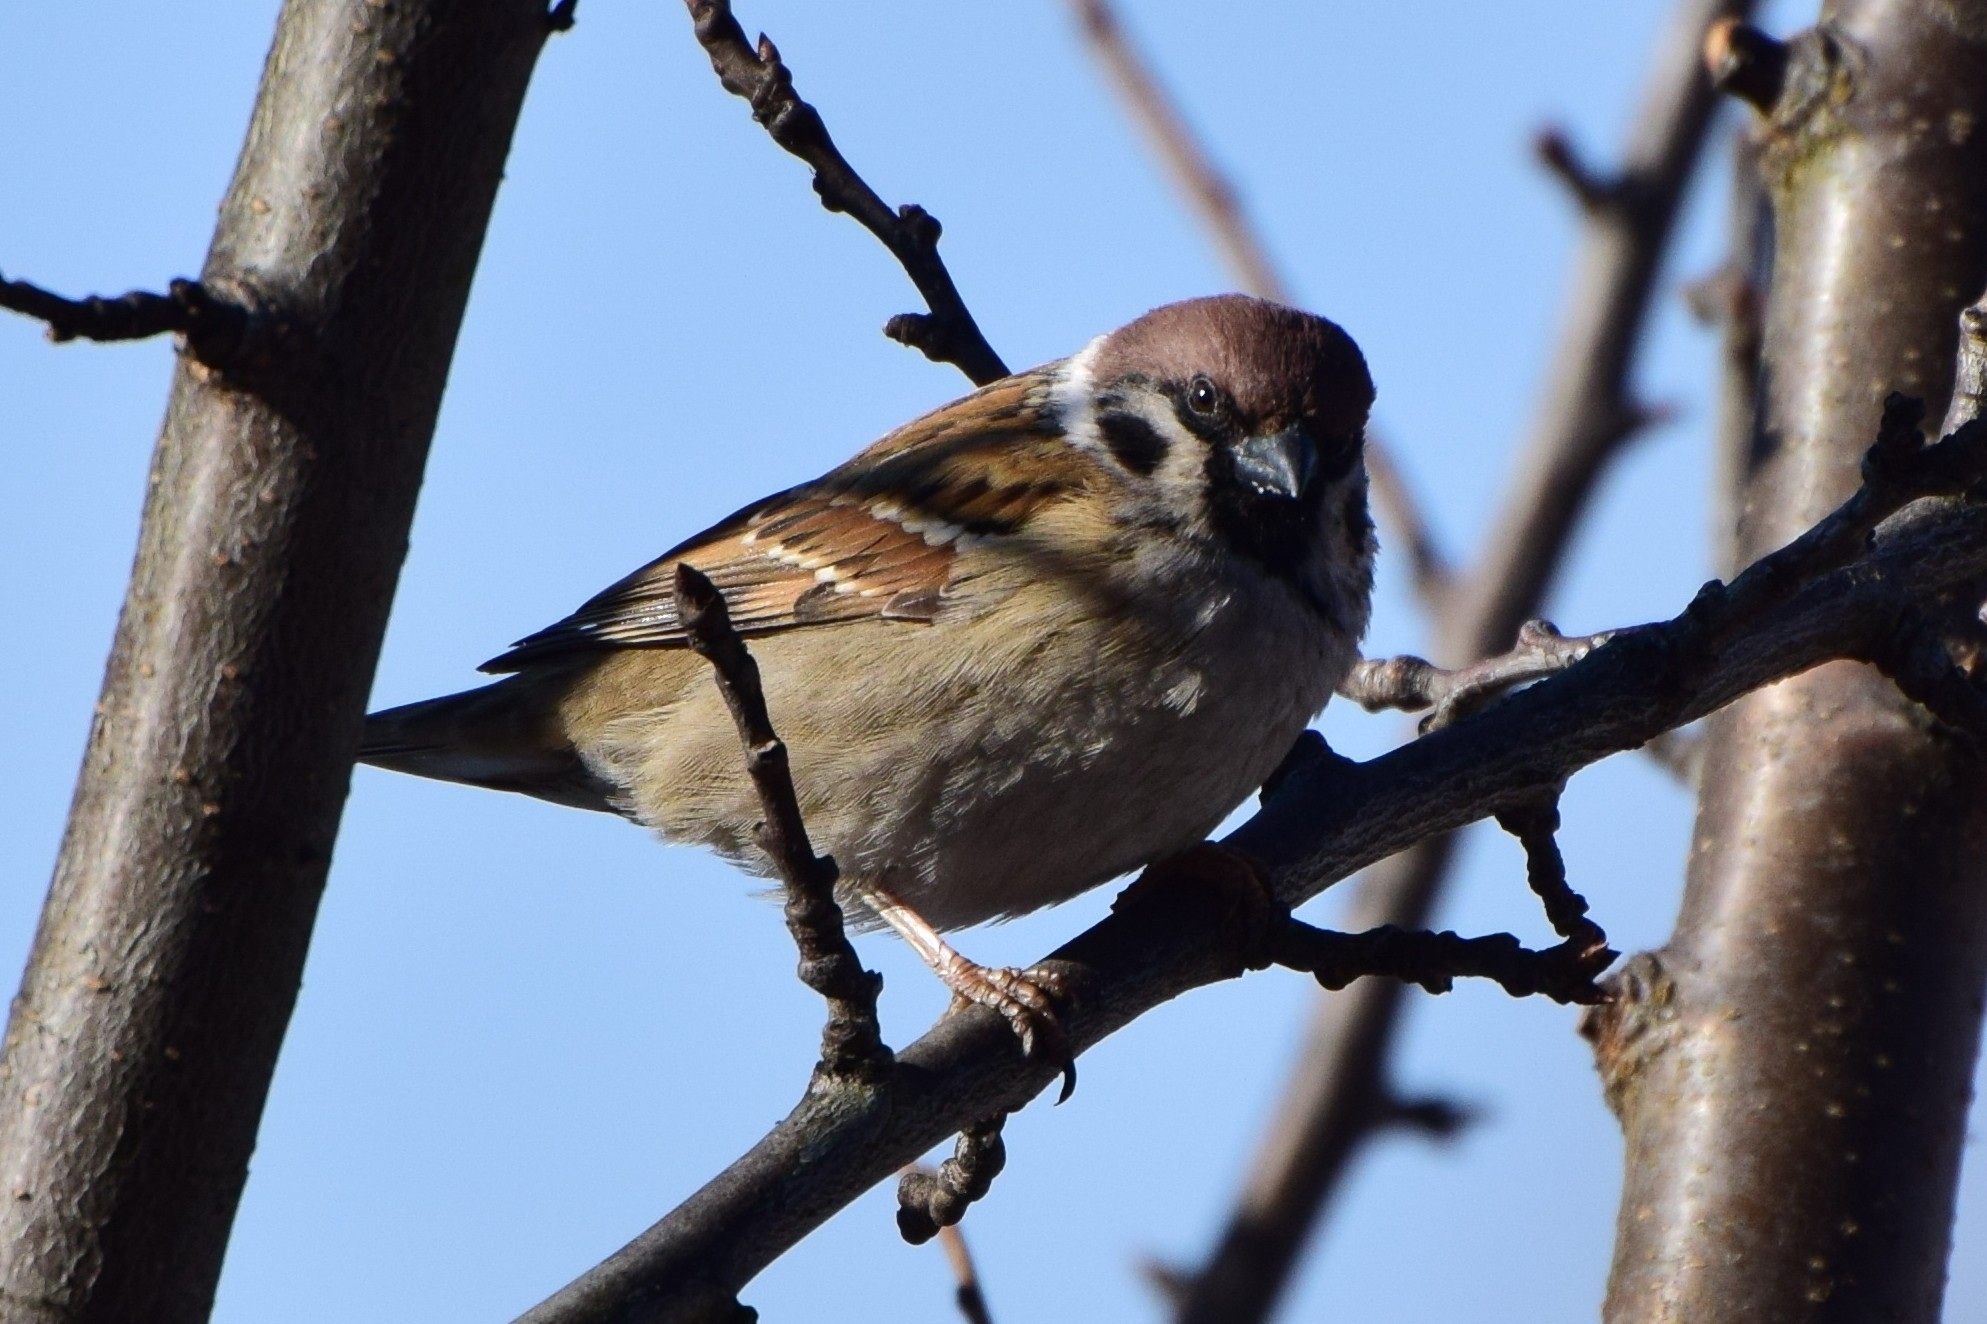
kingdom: Animalia
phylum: Chordata
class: Aves
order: Passeriformes
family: Passeridae
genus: Passer
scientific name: Passer montanus
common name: Eurasian tree sparrow
